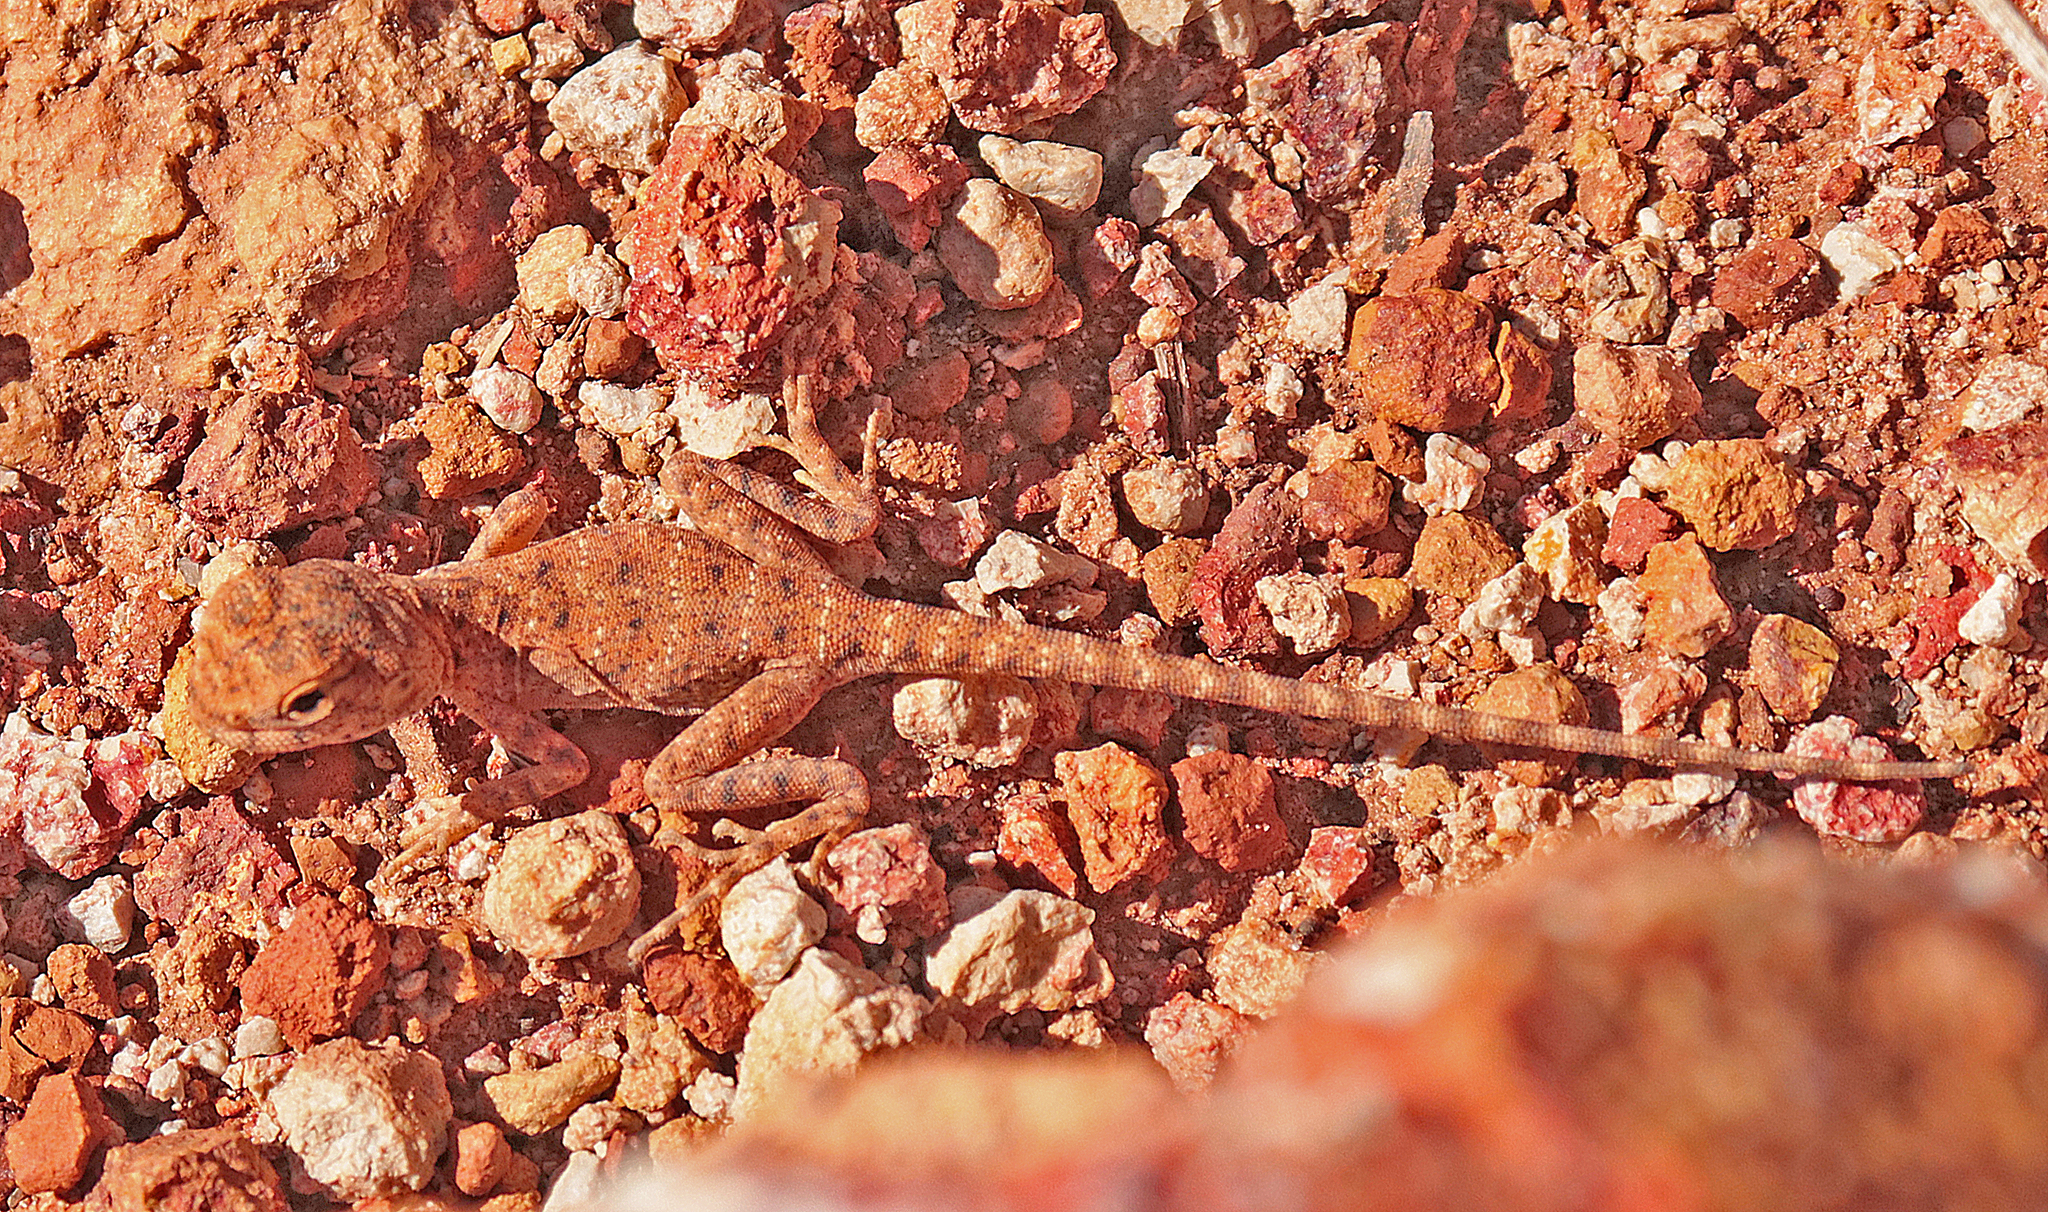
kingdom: Animalia
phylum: Chordata
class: Squamata
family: Agamidae
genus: Ctenophorus
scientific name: Ctenophorus slateri
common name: Slater’s dragon
